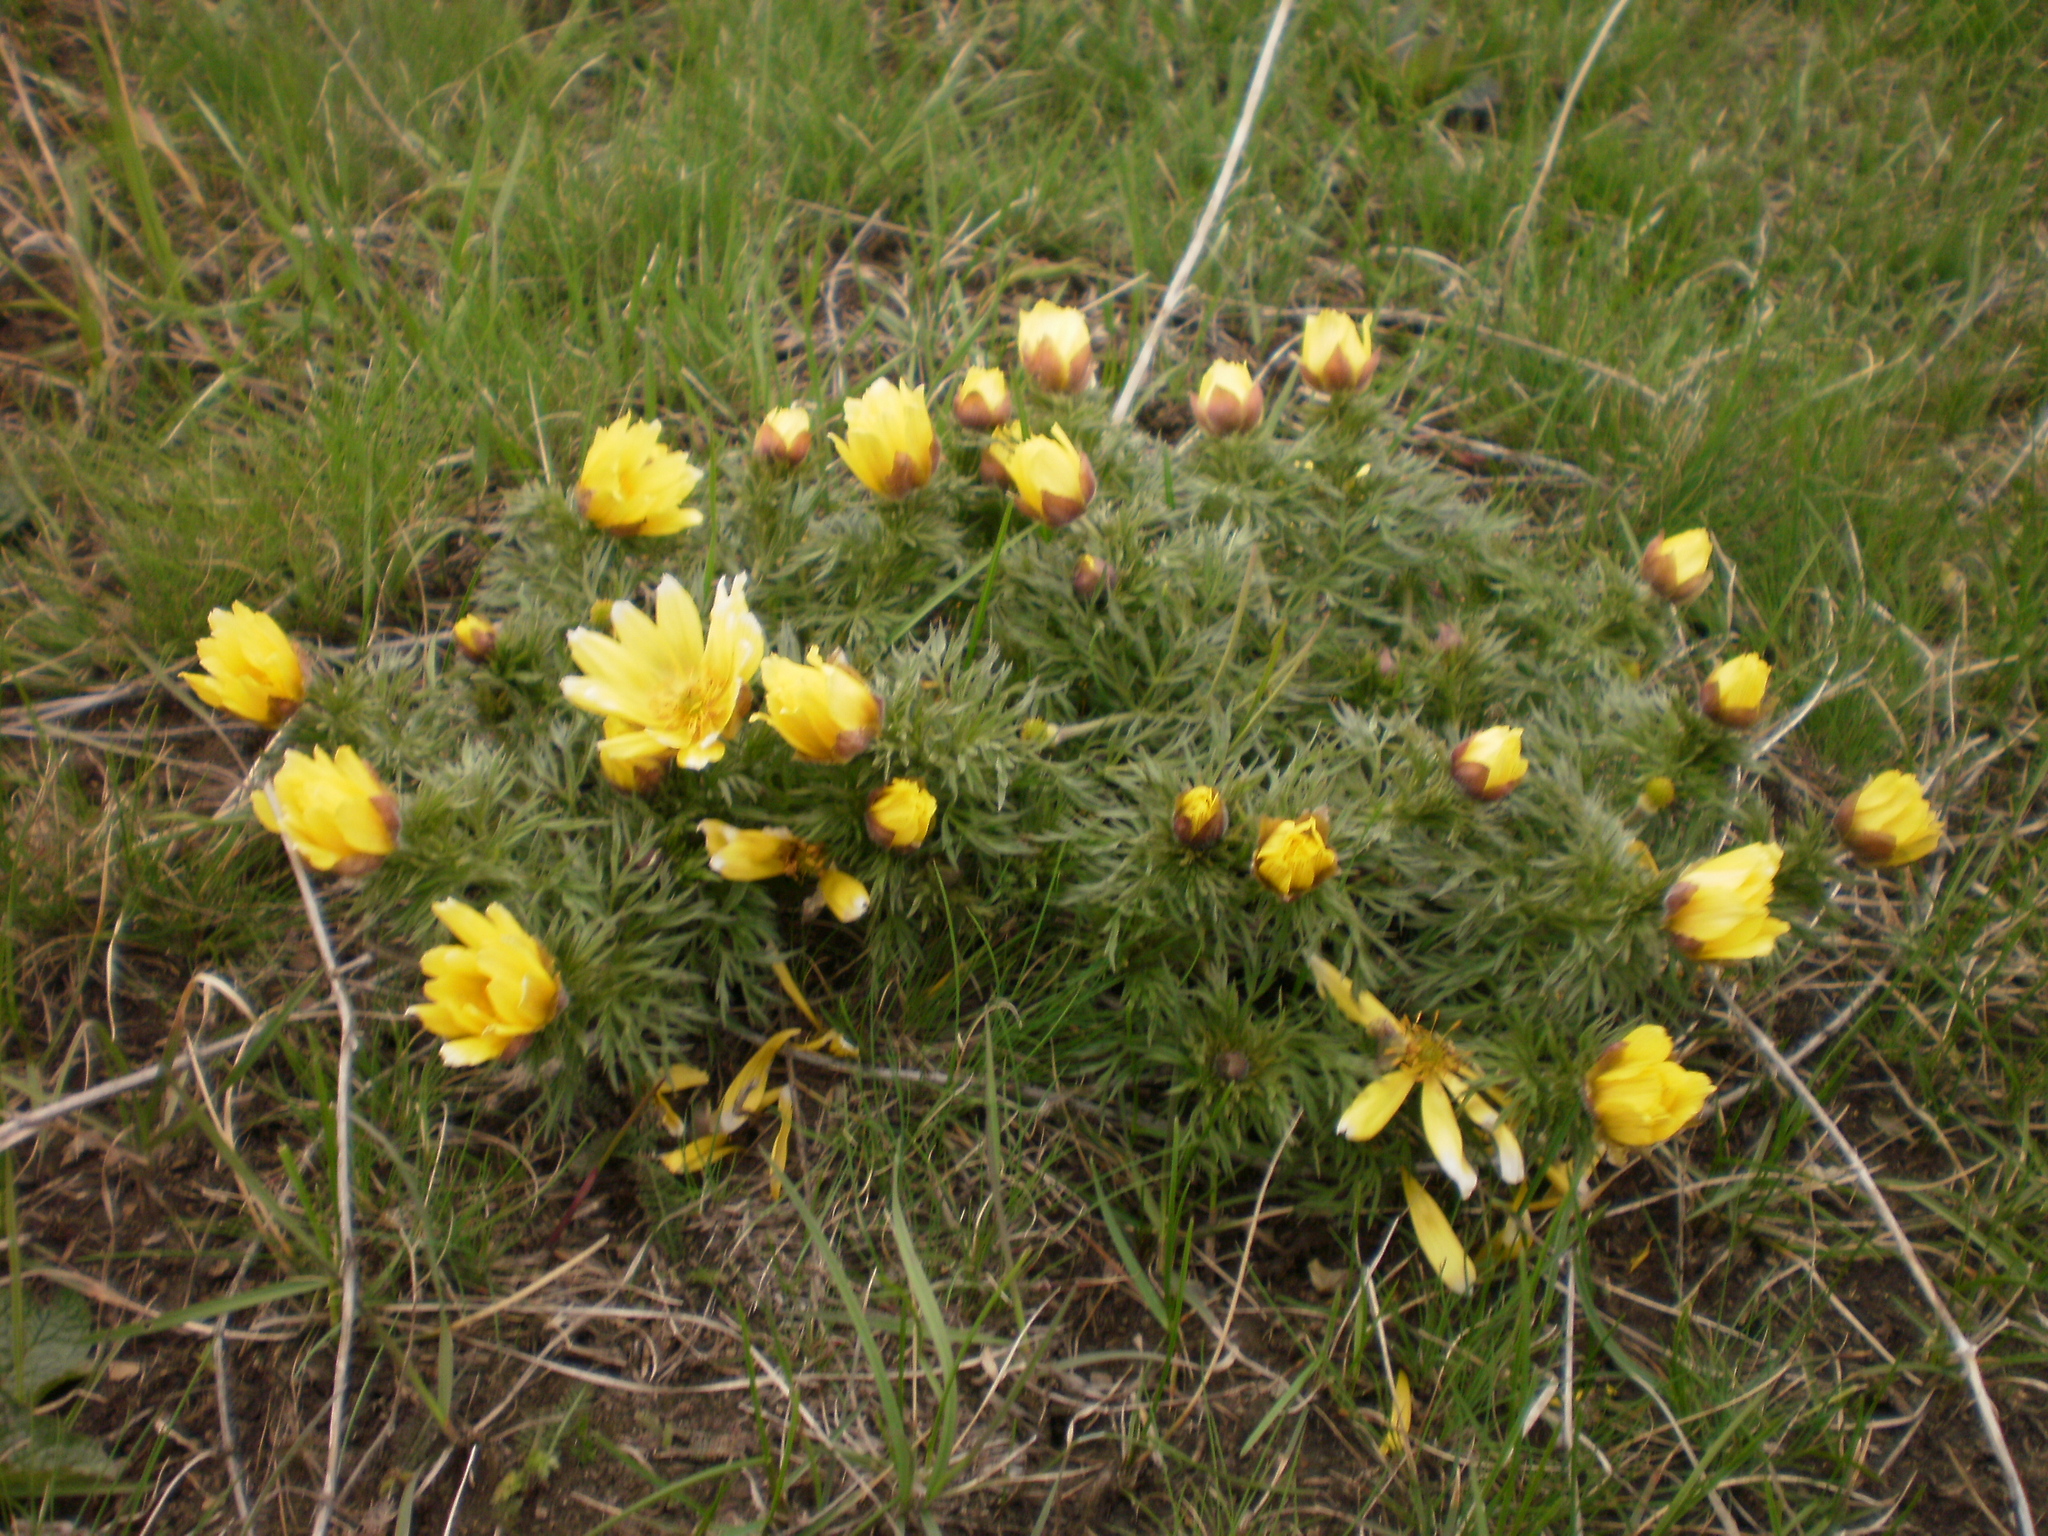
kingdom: Plantae
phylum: Tracheophyta
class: Magnoliopsida
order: Ranunculales
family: Ranunculaceae
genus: Adonis
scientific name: Adonis volgensis
